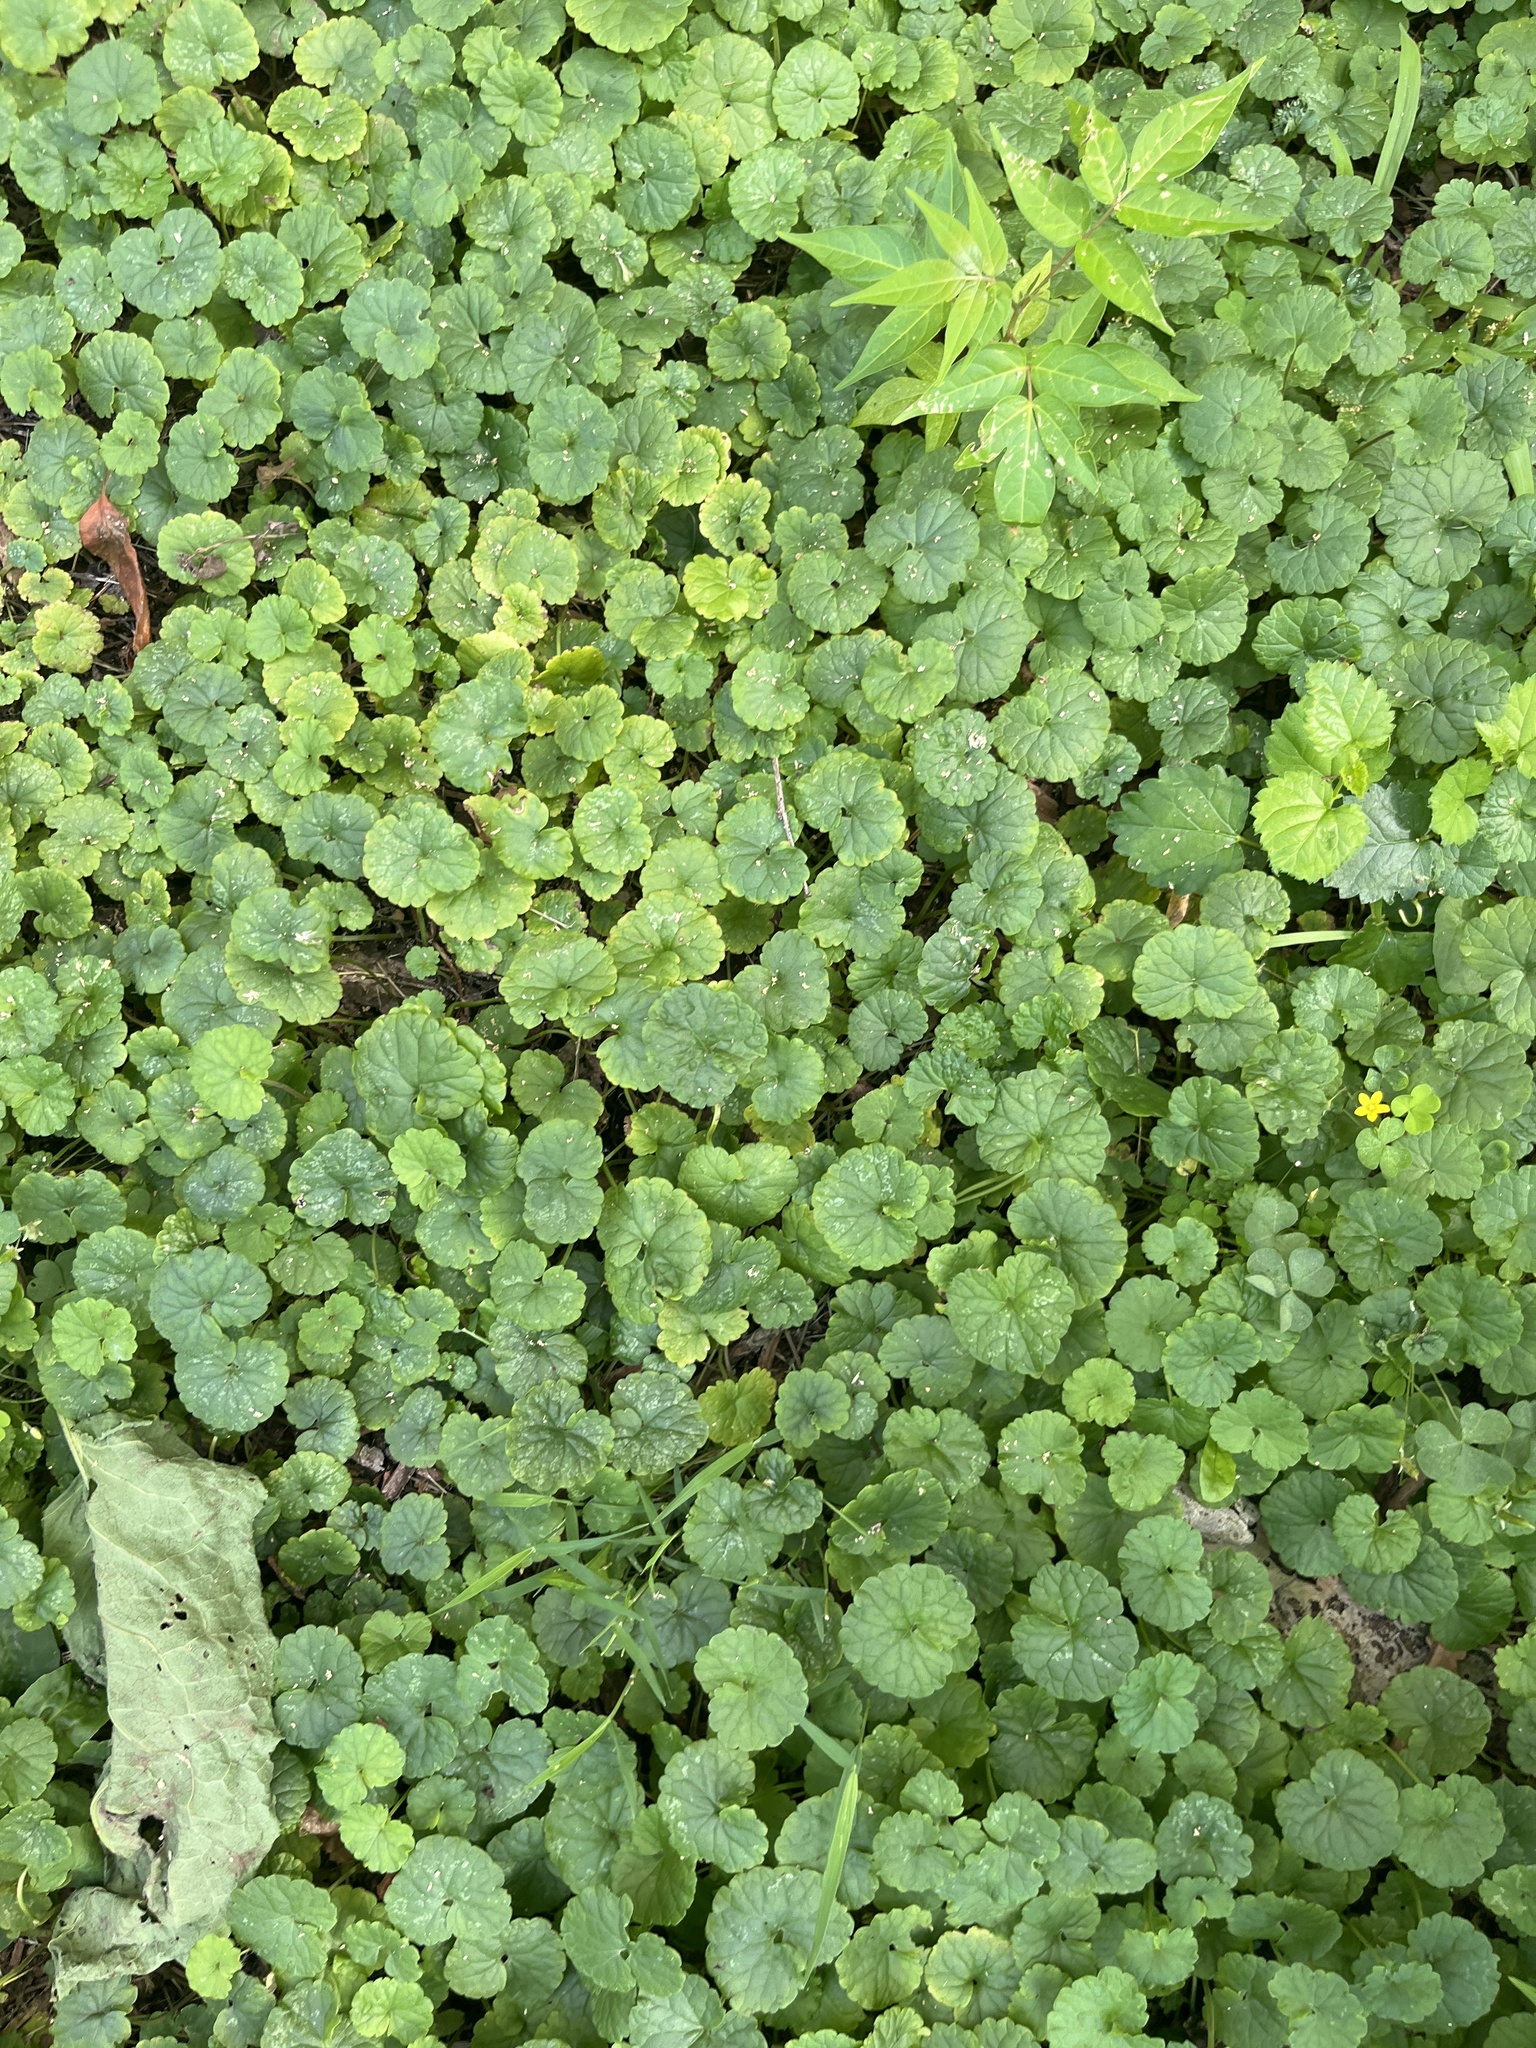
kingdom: Plantae
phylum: Tracheophyta
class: Magnoliopsida
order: Lamiales
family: Lamiaceae
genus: Glechoma
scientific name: Glechoma hederacea
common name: Ground ivy
